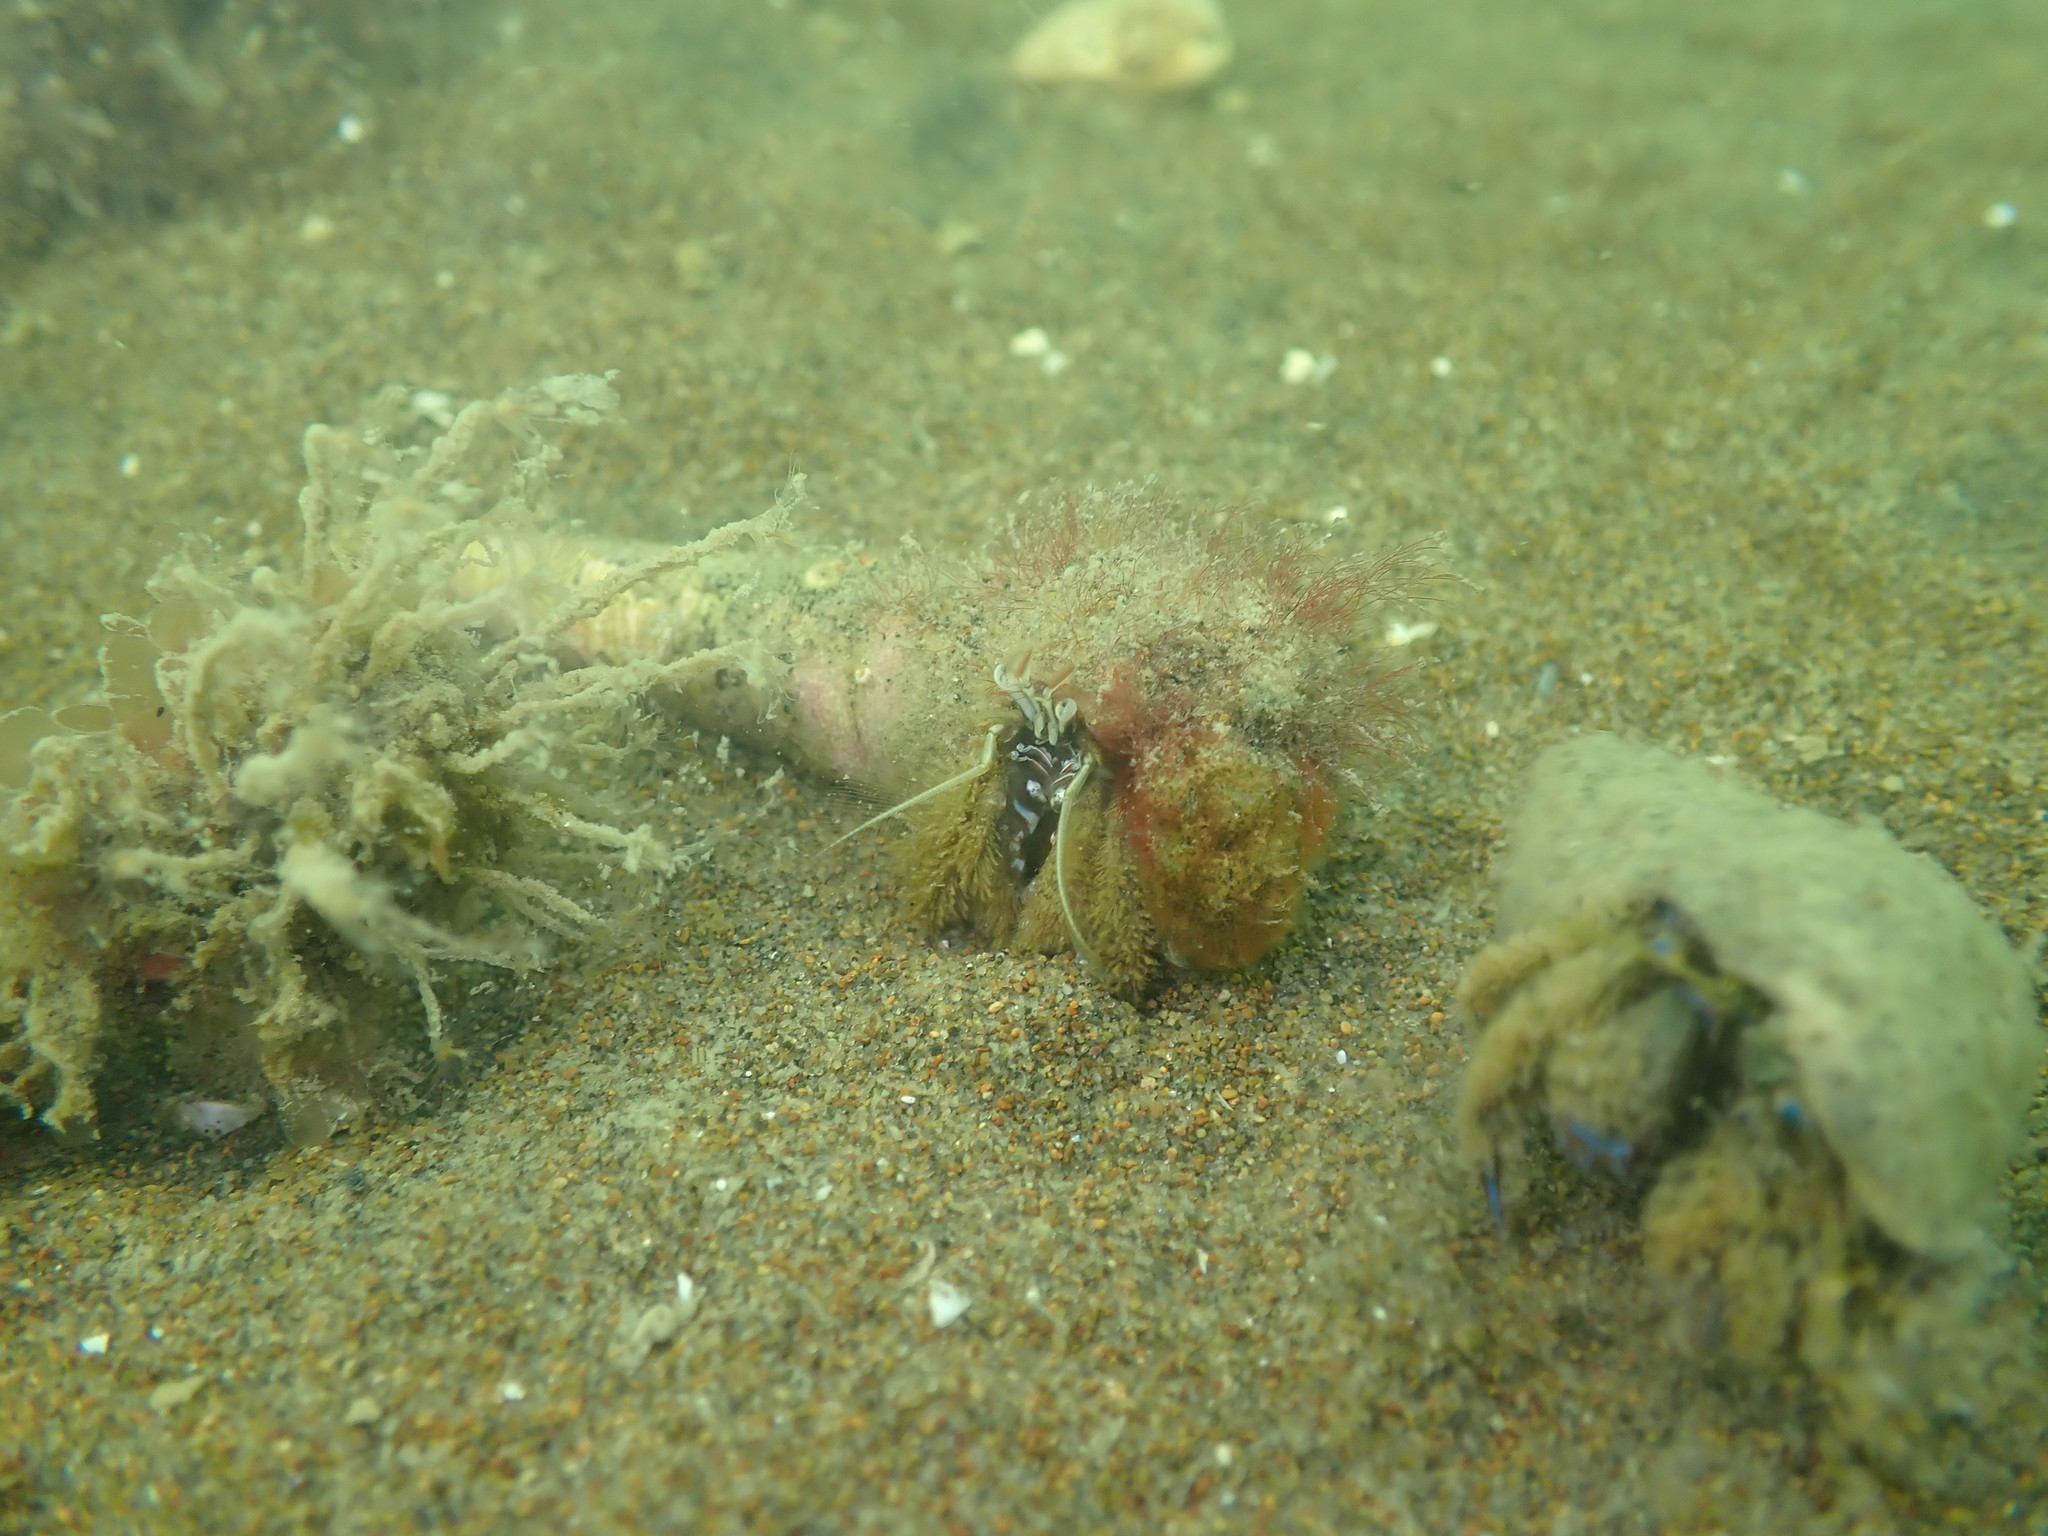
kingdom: Animalia
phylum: Arthropoda
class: Malacostraca
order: Decapoda
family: Diogenidae
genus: Areopaguristes
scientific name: Areopaguristes setosus
